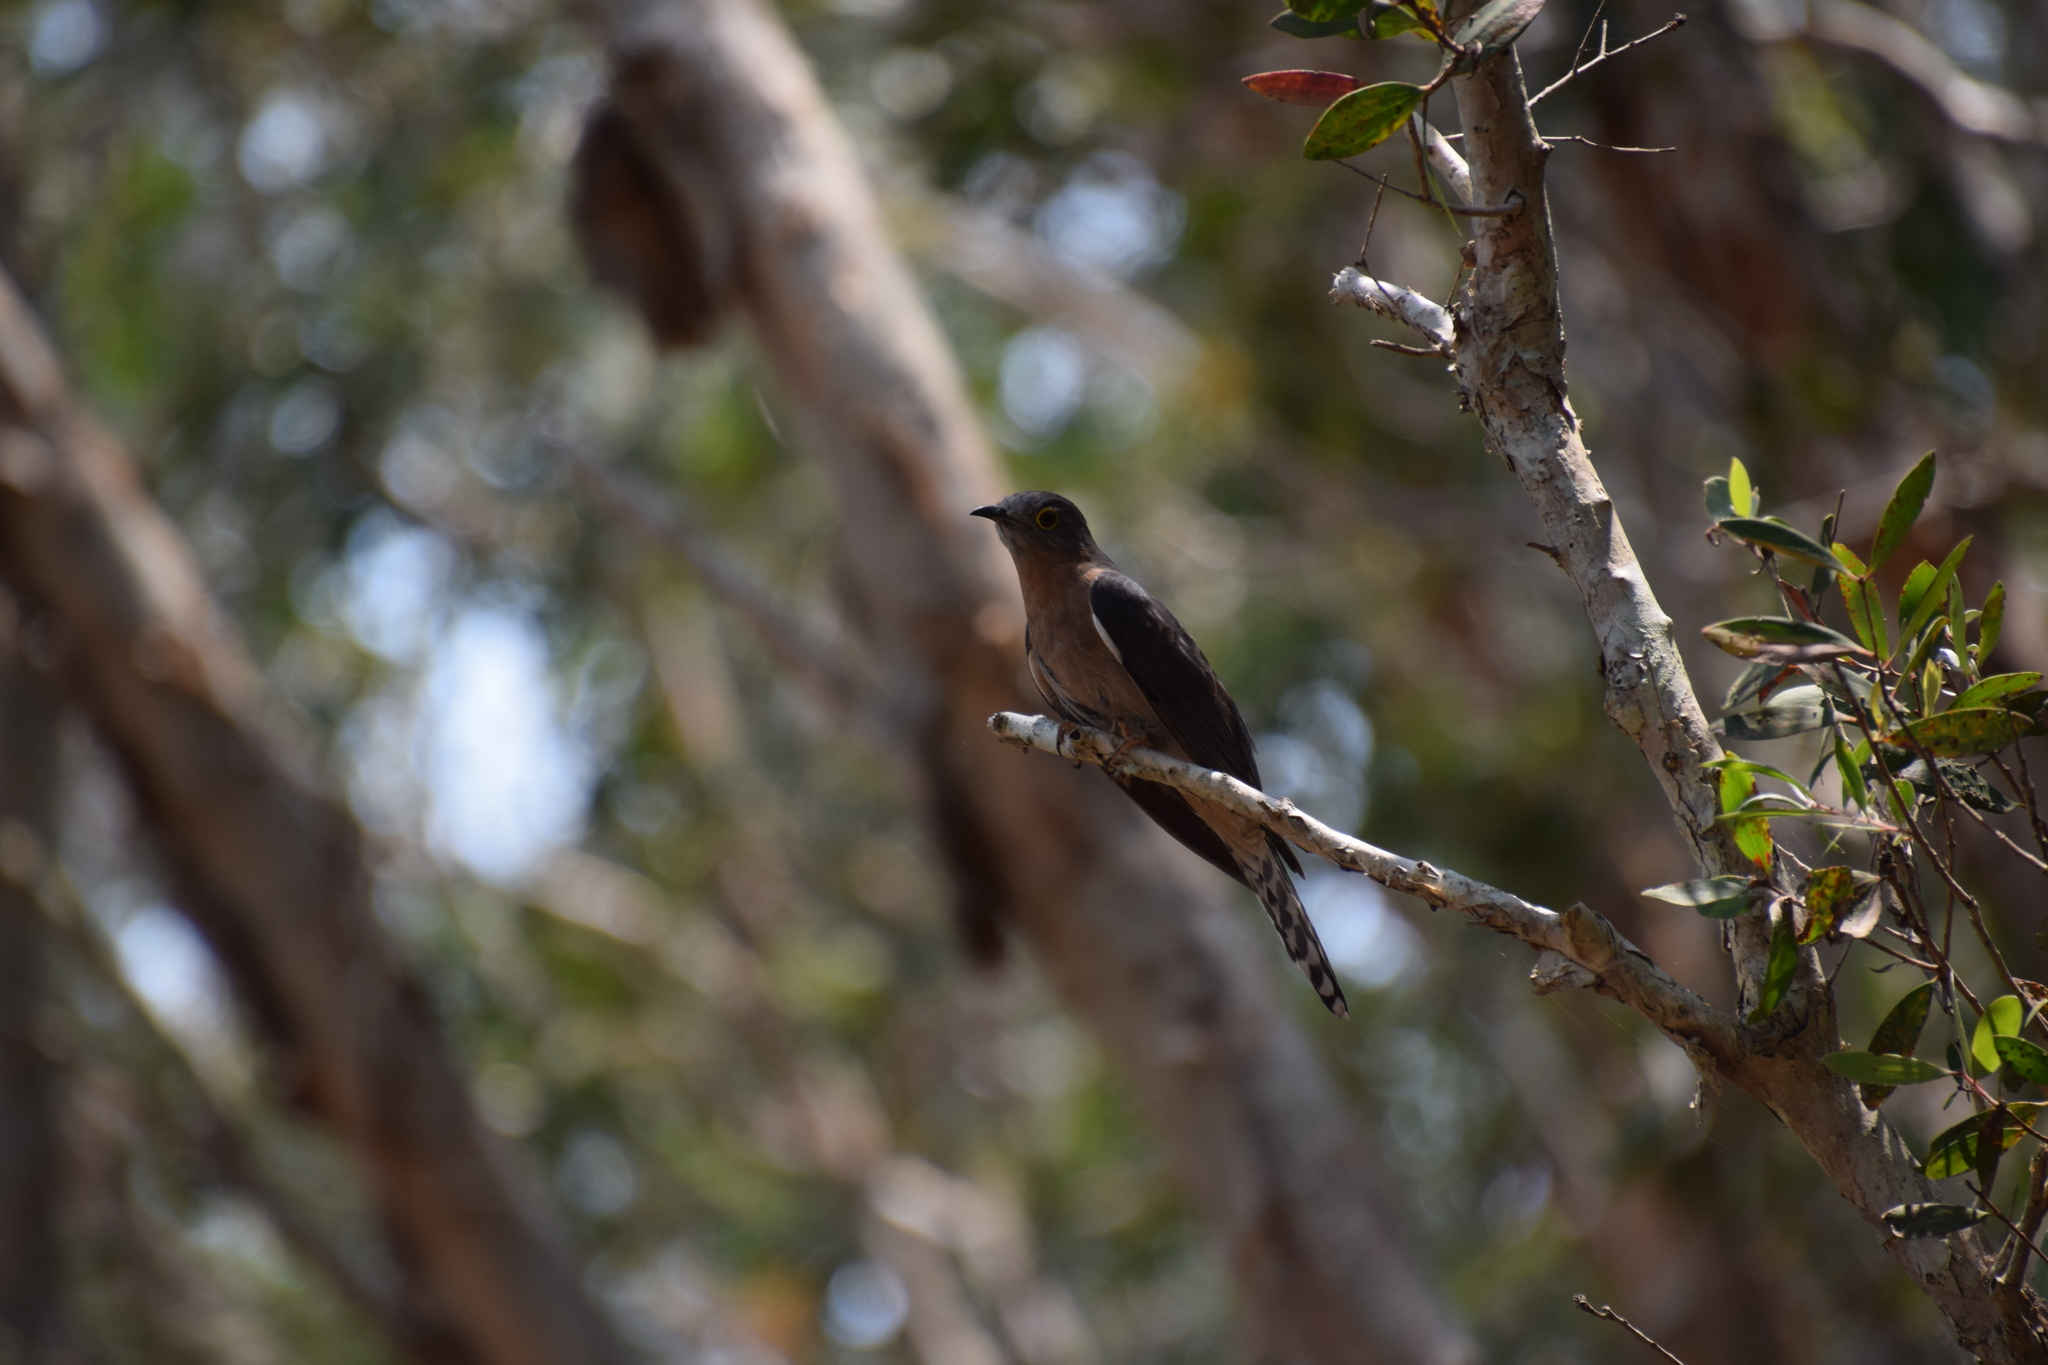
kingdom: Animalia
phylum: Chordata
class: Aves
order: Cuculiformes
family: Cuculidae
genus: Cacomantis
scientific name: Cacomantis flabelliformis
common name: Fan-tailed cuckoo
